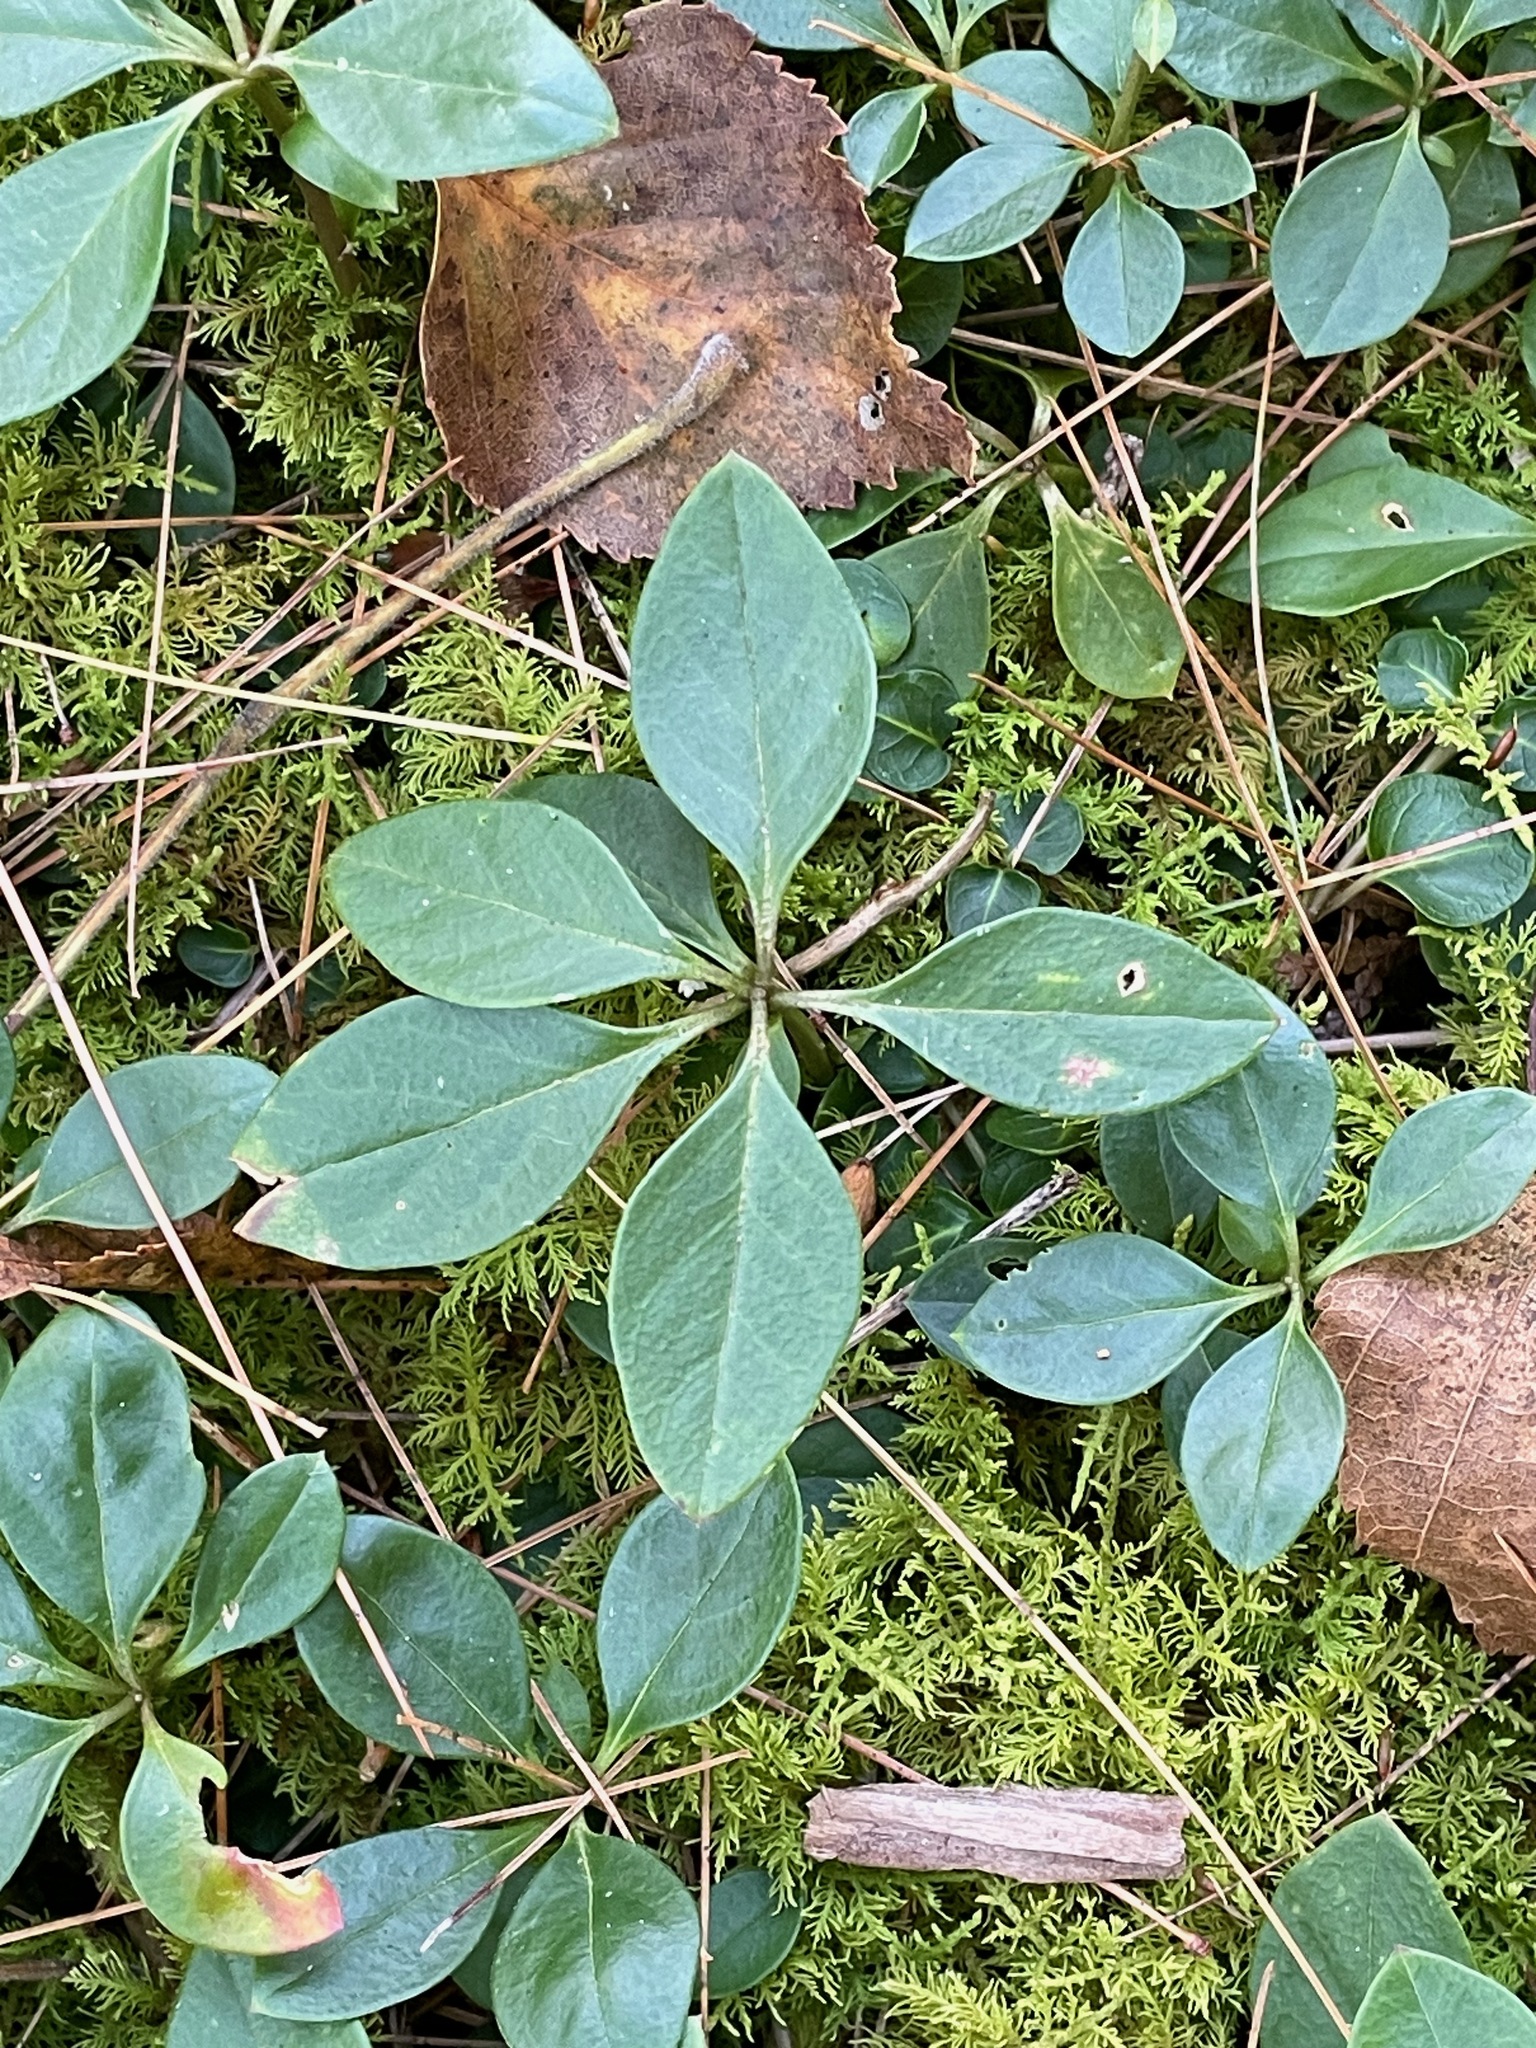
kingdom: Plantae
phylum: Tracheophyta
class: Magnoliopsida
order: Fabales
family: Polygalaceae
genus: Polygaloides
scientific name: Polygaloides paucifolia
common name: Bird-on-the-wing
